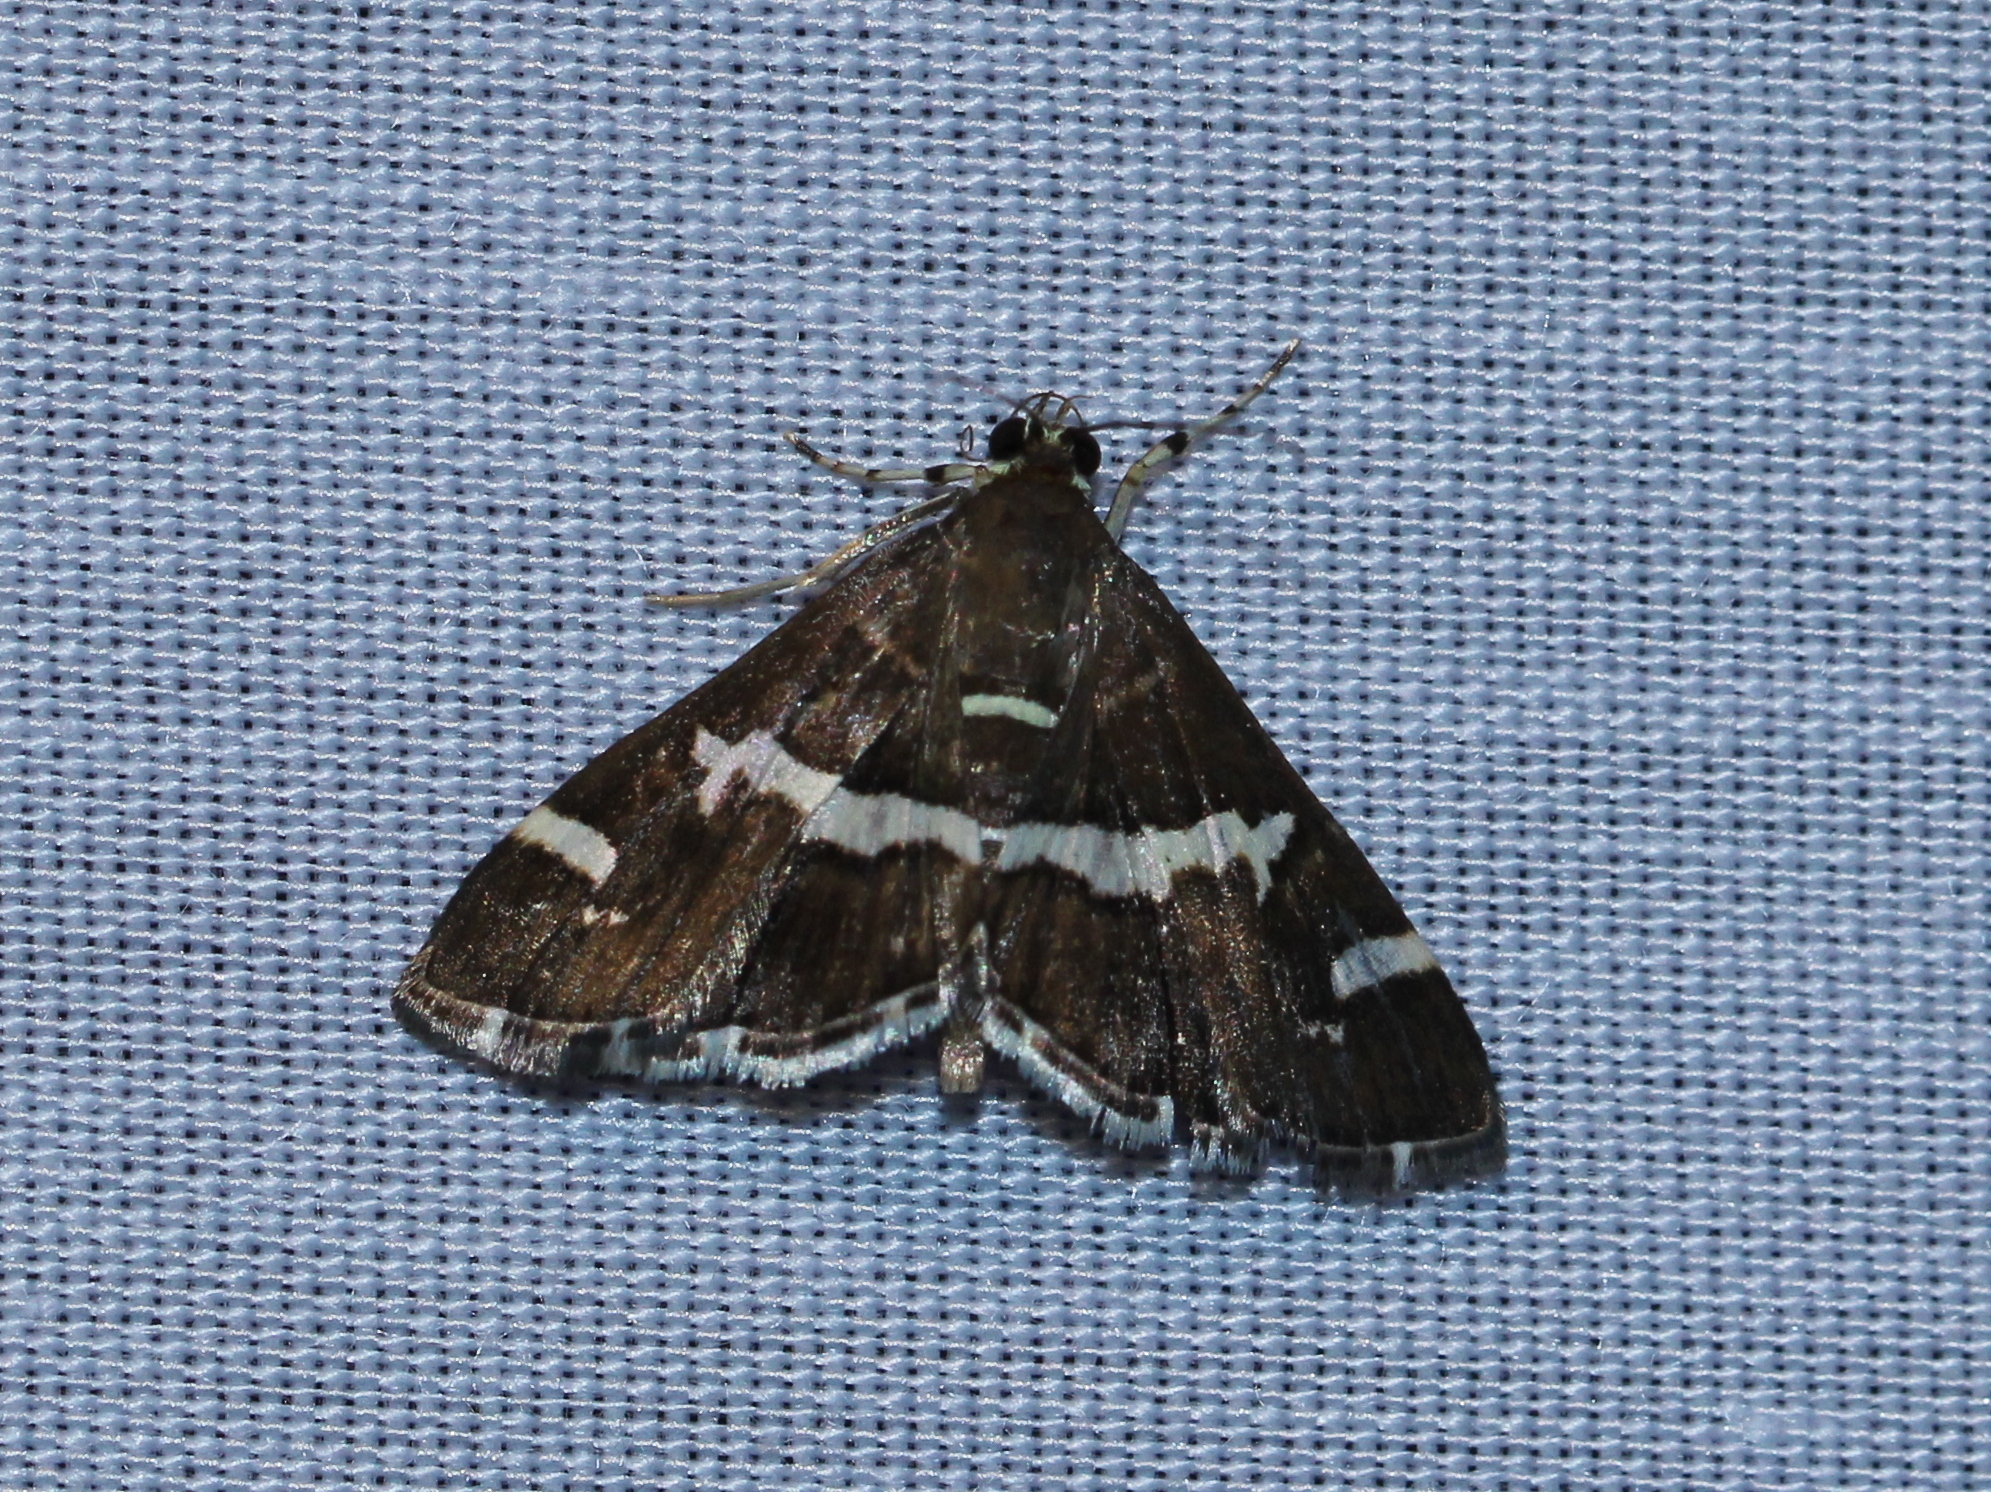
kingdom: Animalia
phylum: Arthropoda
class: Insecta
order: Lepidoptera
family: Crambidae
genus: Spoladea
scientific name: Spoladea recurvalis
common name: Beet webworm moth
